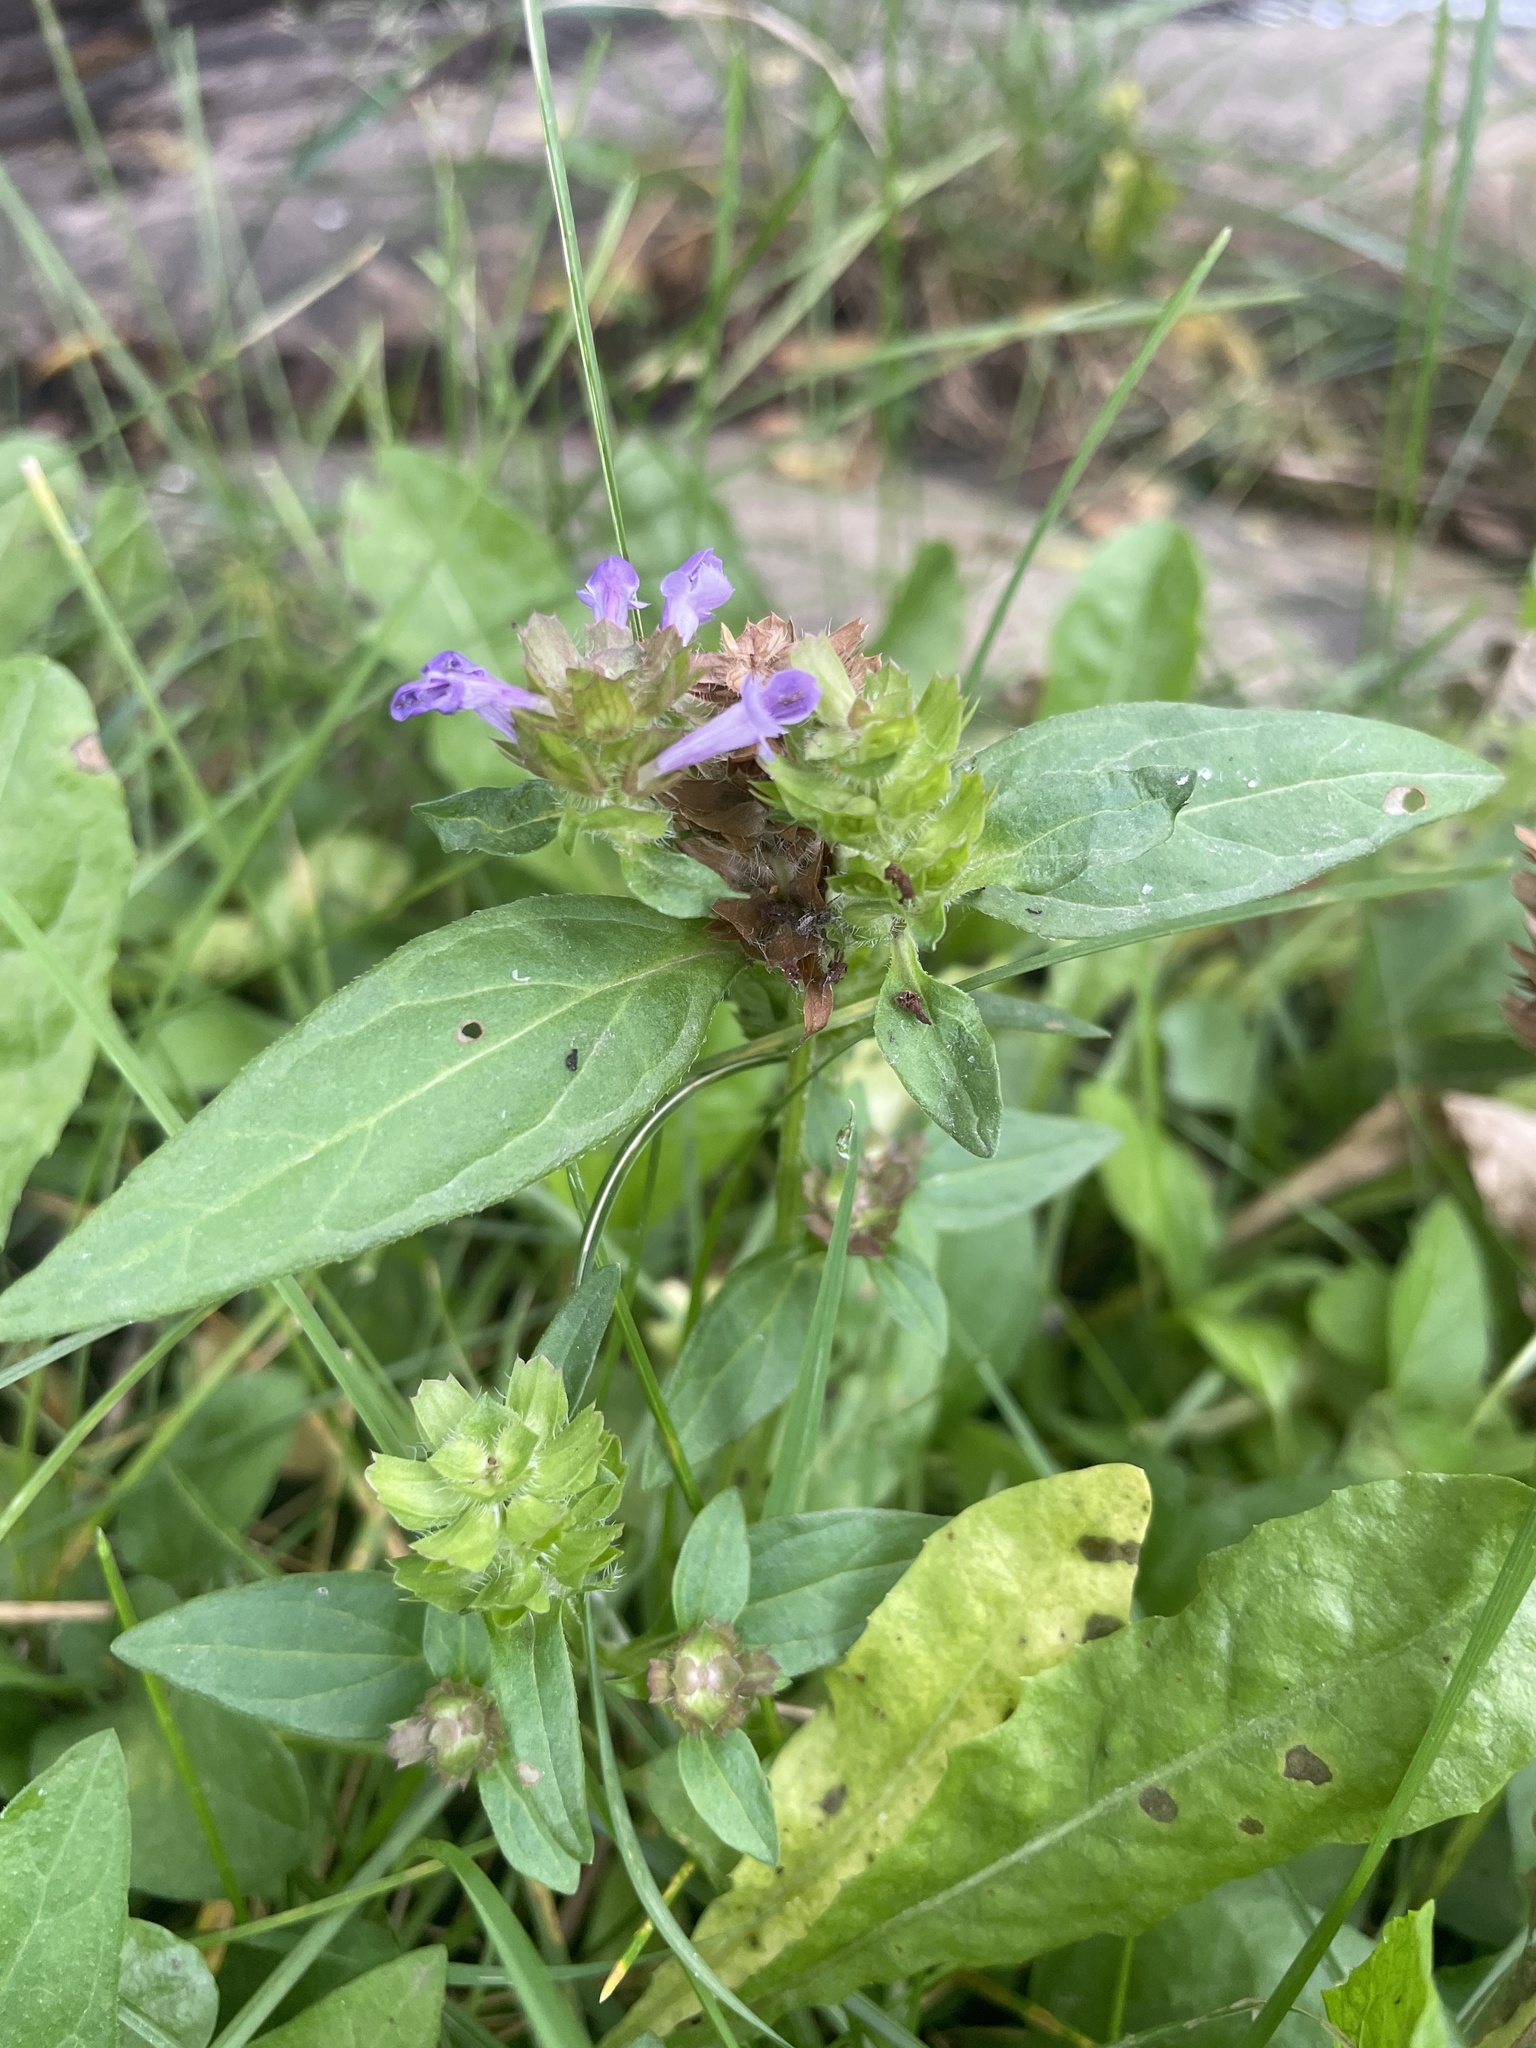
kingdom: Plantae
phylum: Tracheophyta
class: Magnoliopsida
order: Lamiales
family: Lamiaceae
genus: Prunella
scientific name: Prunella vulgaris
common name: Heal-all
